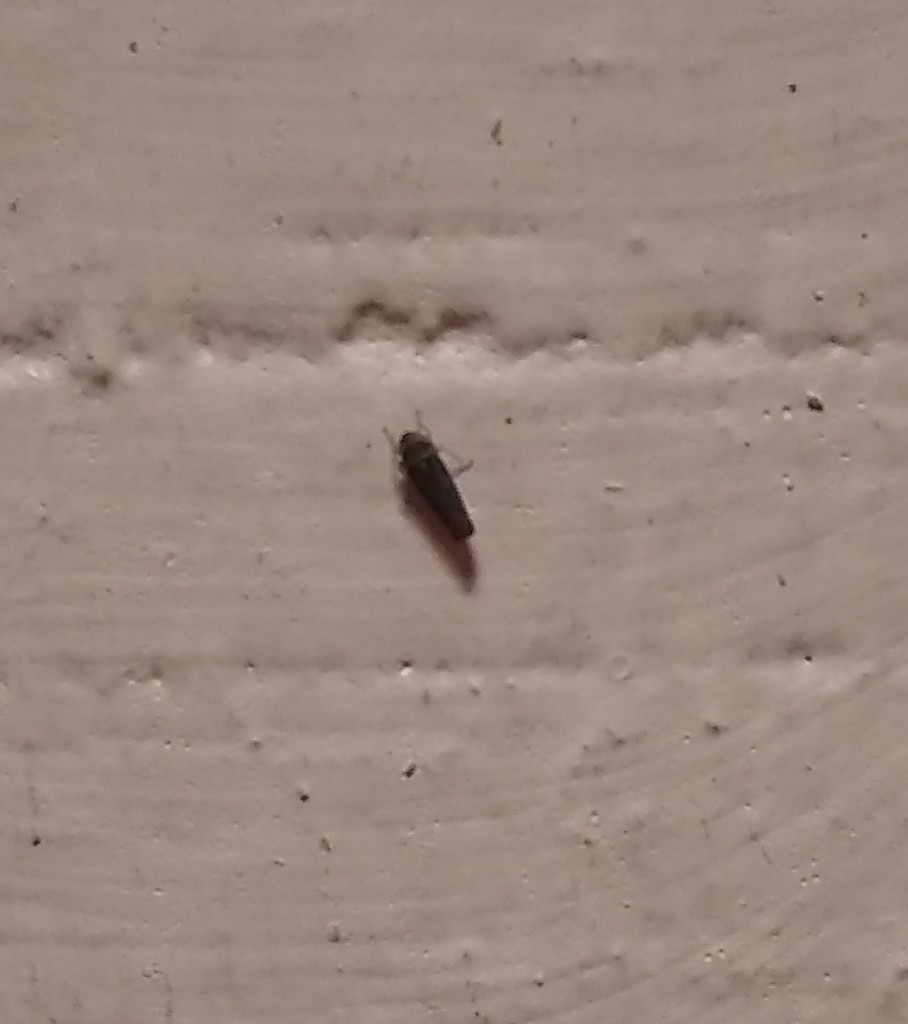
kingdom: Animalia
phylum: Arthropoda
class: Insecta
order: Hemiptera
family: Cicadellidae
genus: Tylozygus
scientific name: Tylozygus
